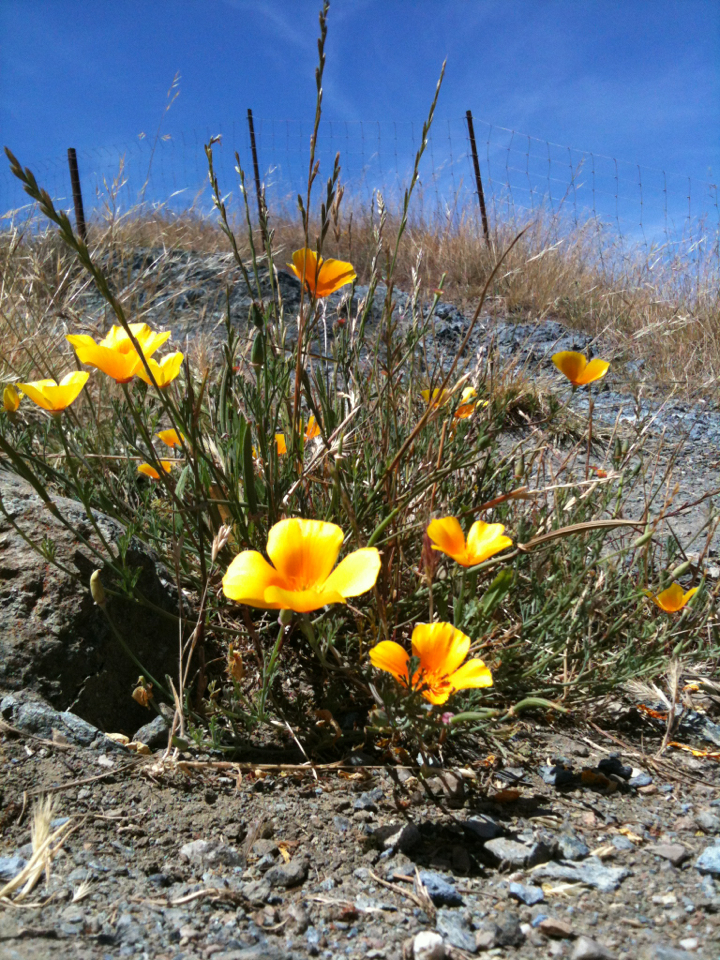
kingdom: Plantae
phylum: Tracheophyta
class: Magnoliopsida
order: Ranunculales
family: Papaveraceae
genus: Eschscholzia
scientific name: Eschscholzia californica
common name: California poppy
